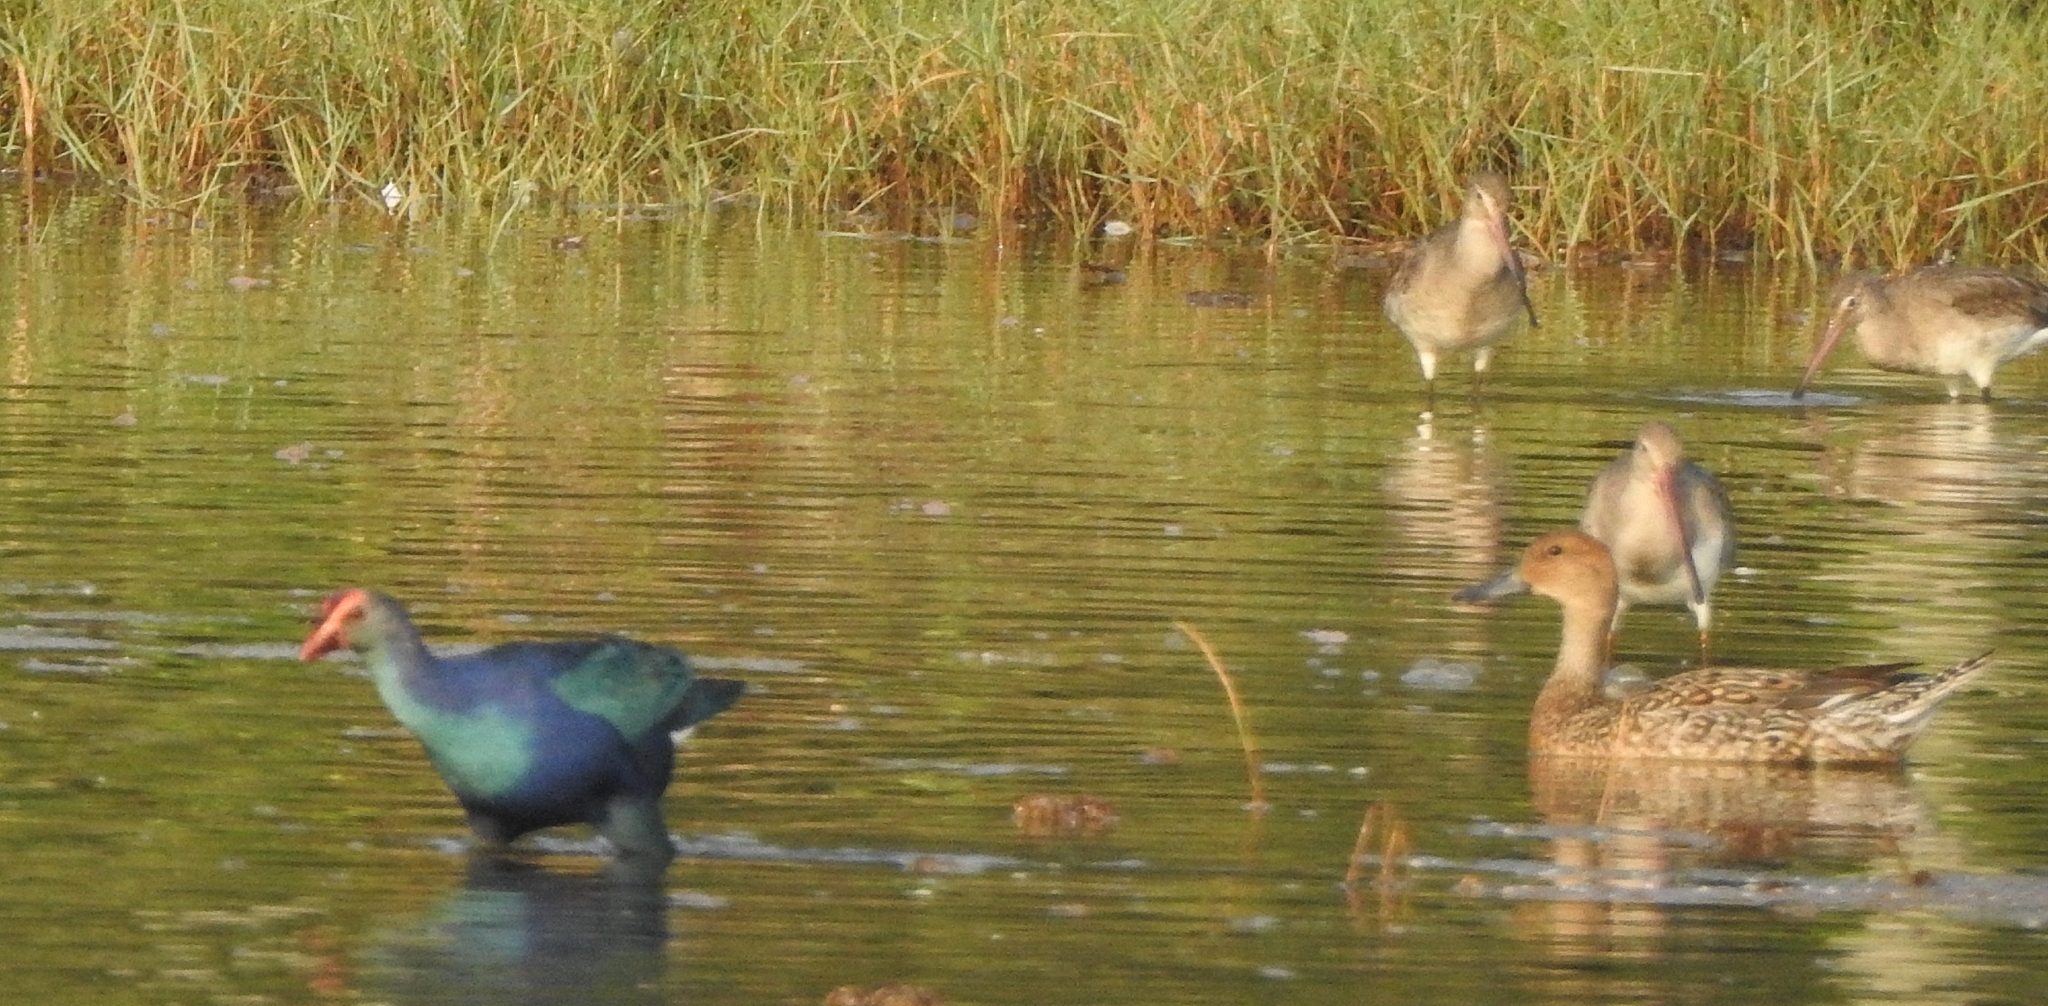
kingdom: Animalia
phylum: Chordata
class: Aves
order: Gruiformes
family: Rallidae
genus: Porphyrio
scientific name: Porphyrio porphyrio
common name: Purple swamphen
